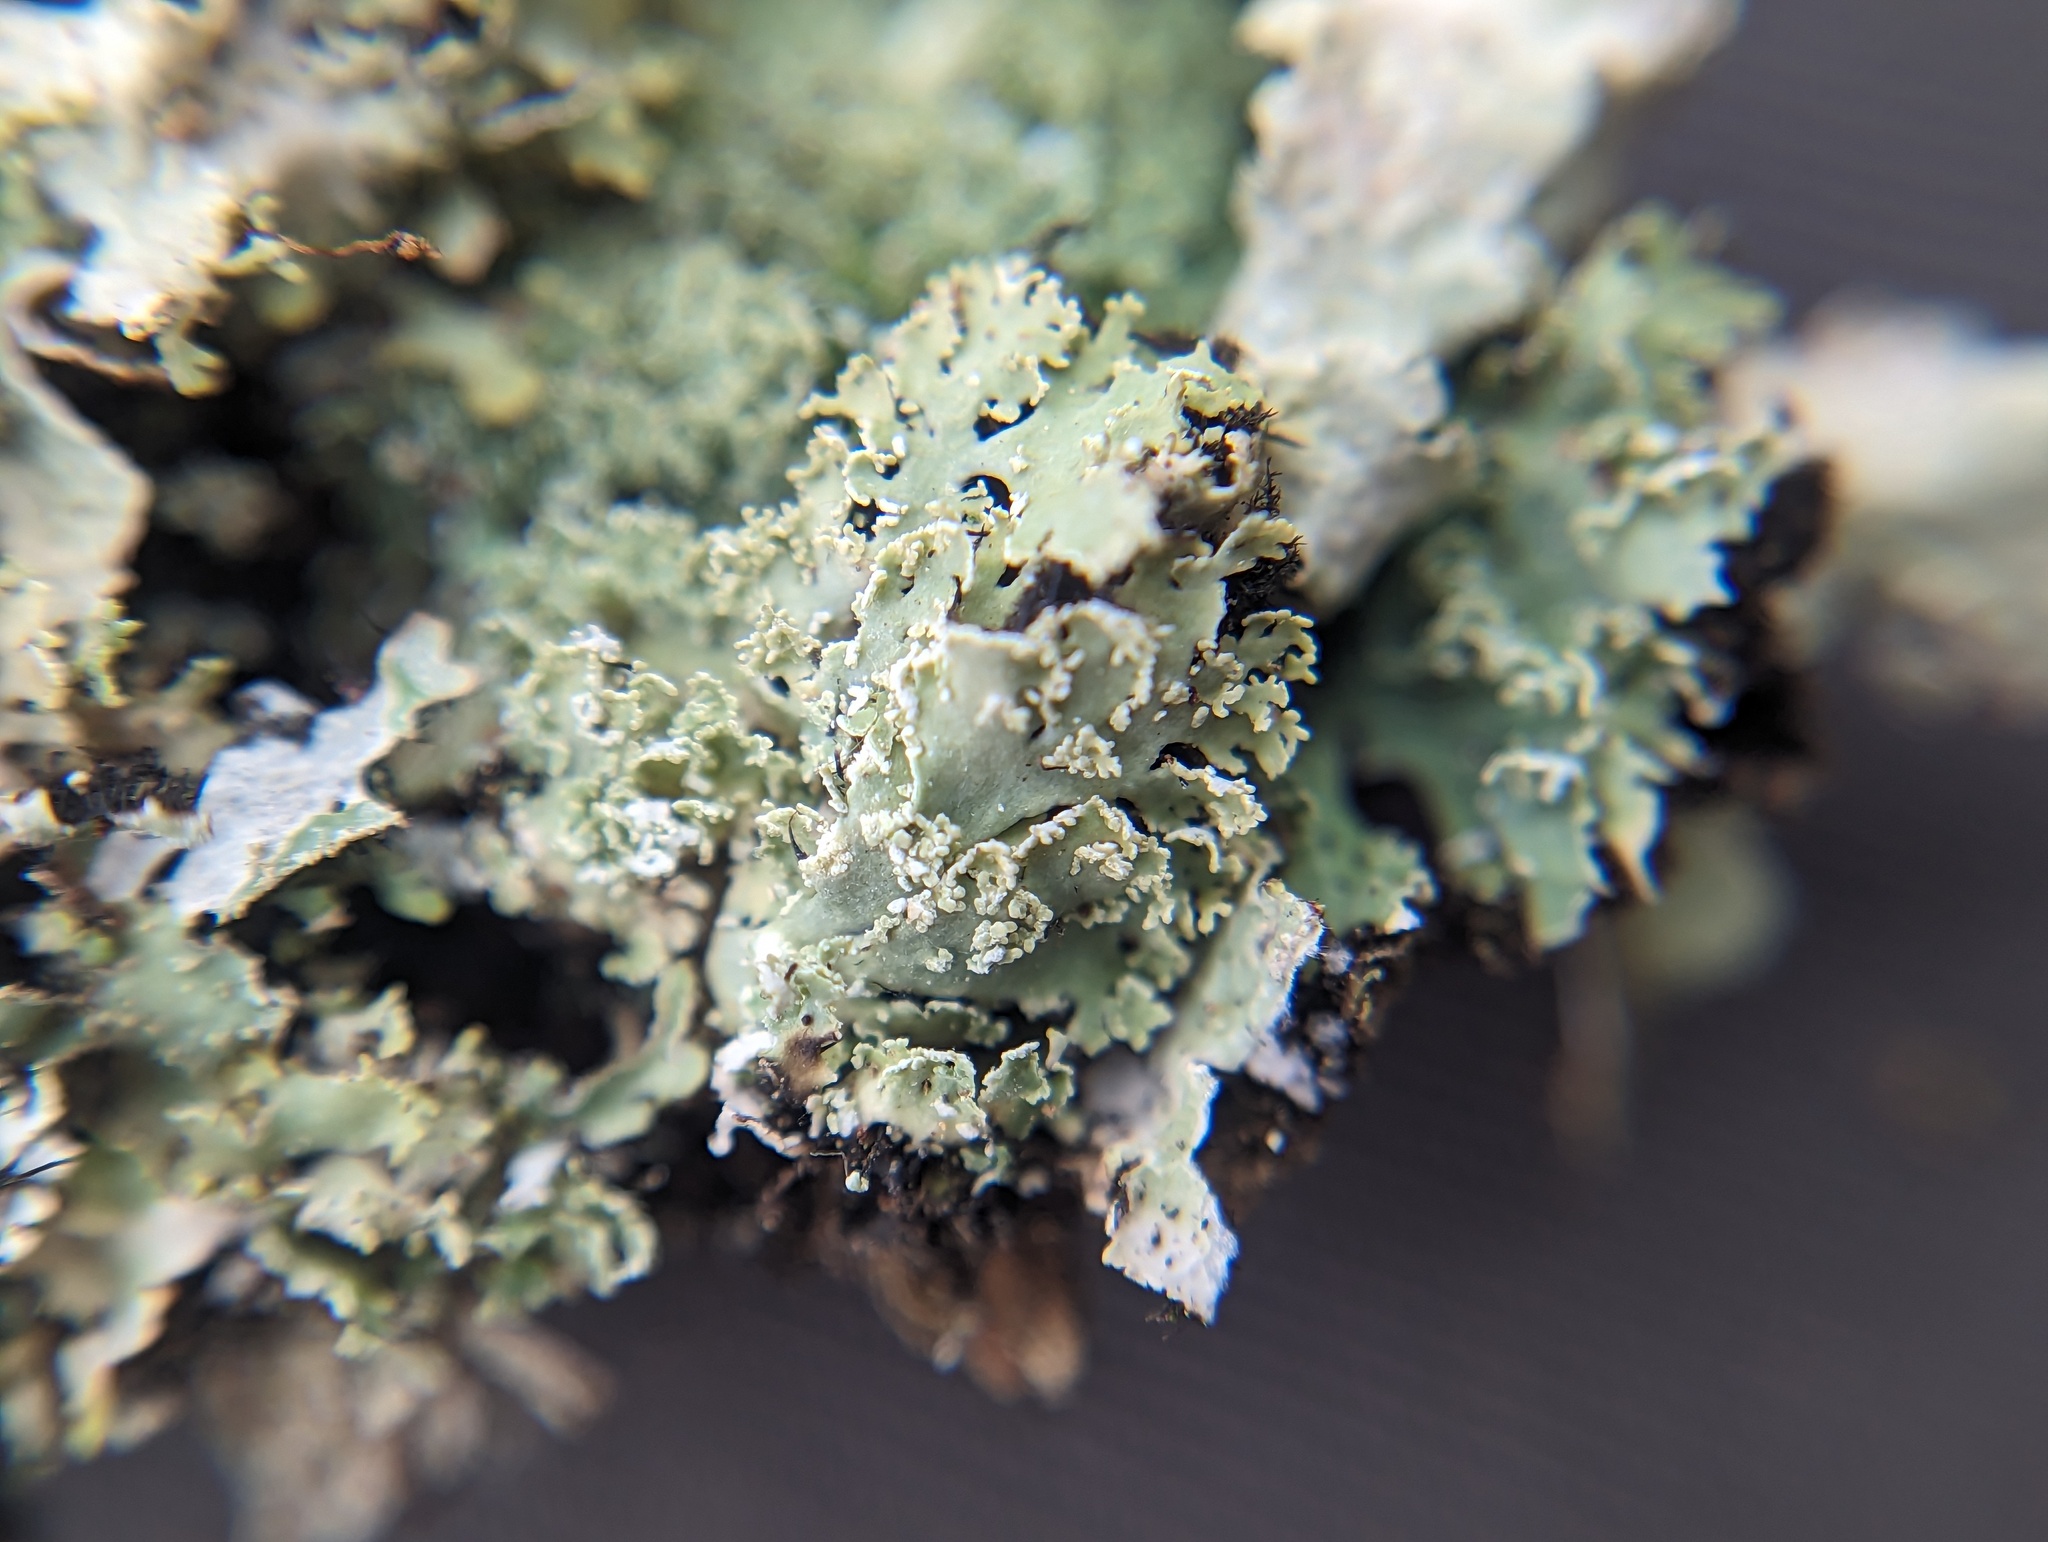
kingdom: Fungi
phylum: Ascomycota
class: Lecanoromycetes
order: Caliciales
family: Physciaceae
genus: Polyblastidium
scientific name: Polyblastidium squamulosum
